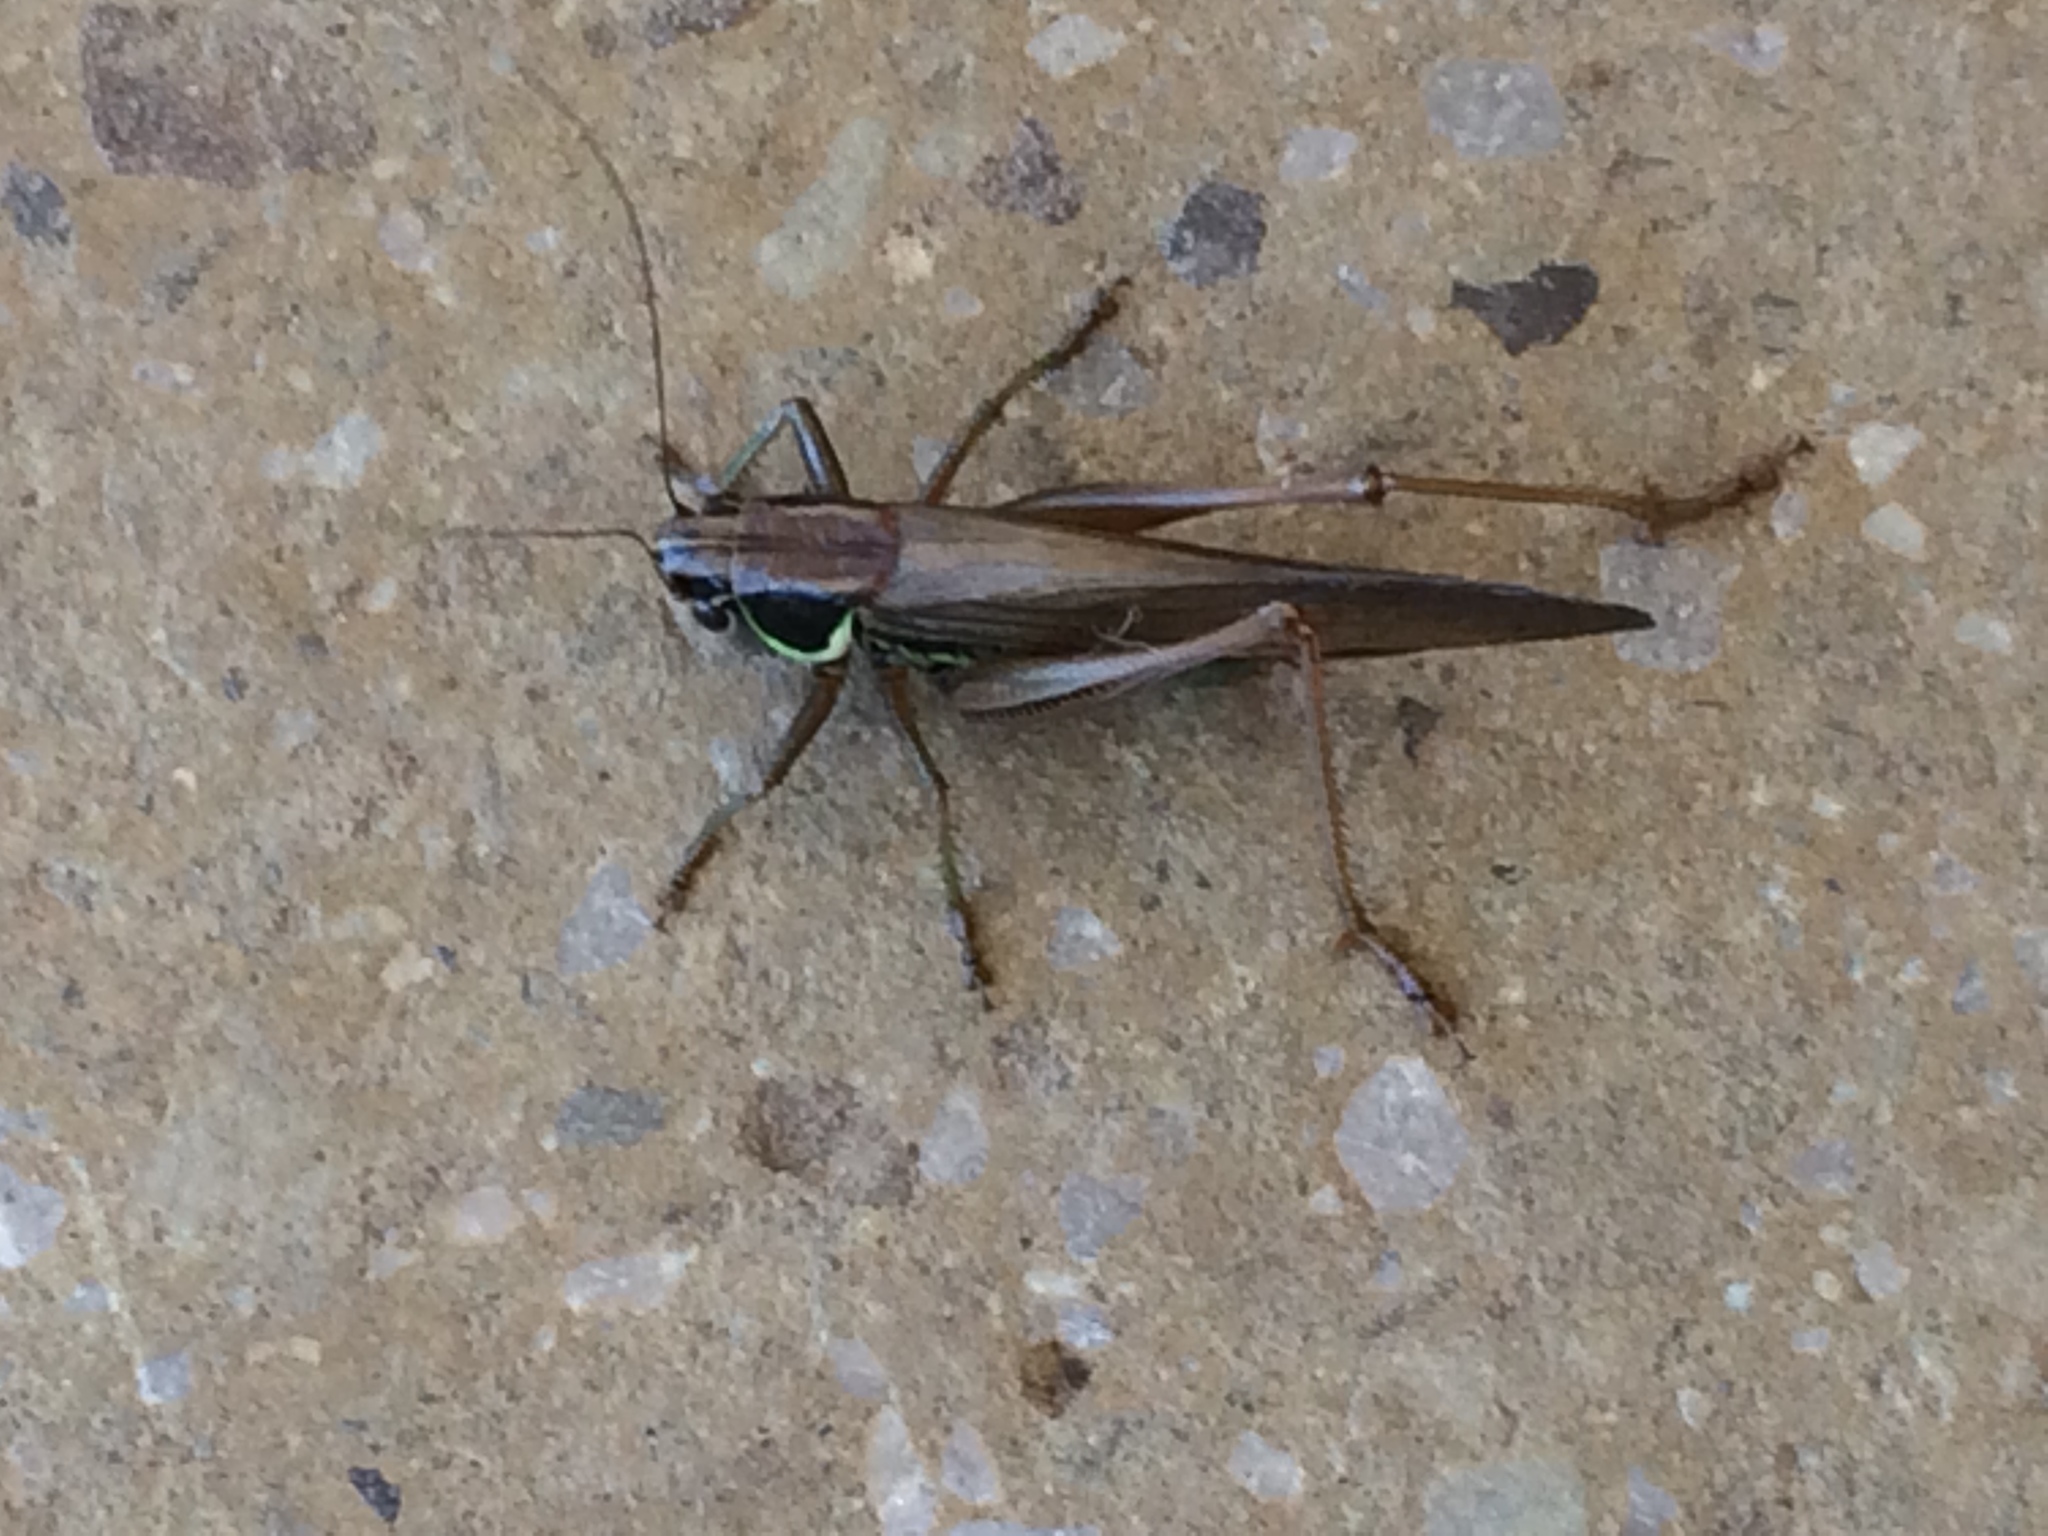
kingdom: Animalia
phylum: Arthropoda
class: Insecta
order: Orthoptera
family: Tettigoniidae
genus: Roeseliana
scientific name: Roeseliana roeselii
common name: Roesel's bush cricket
